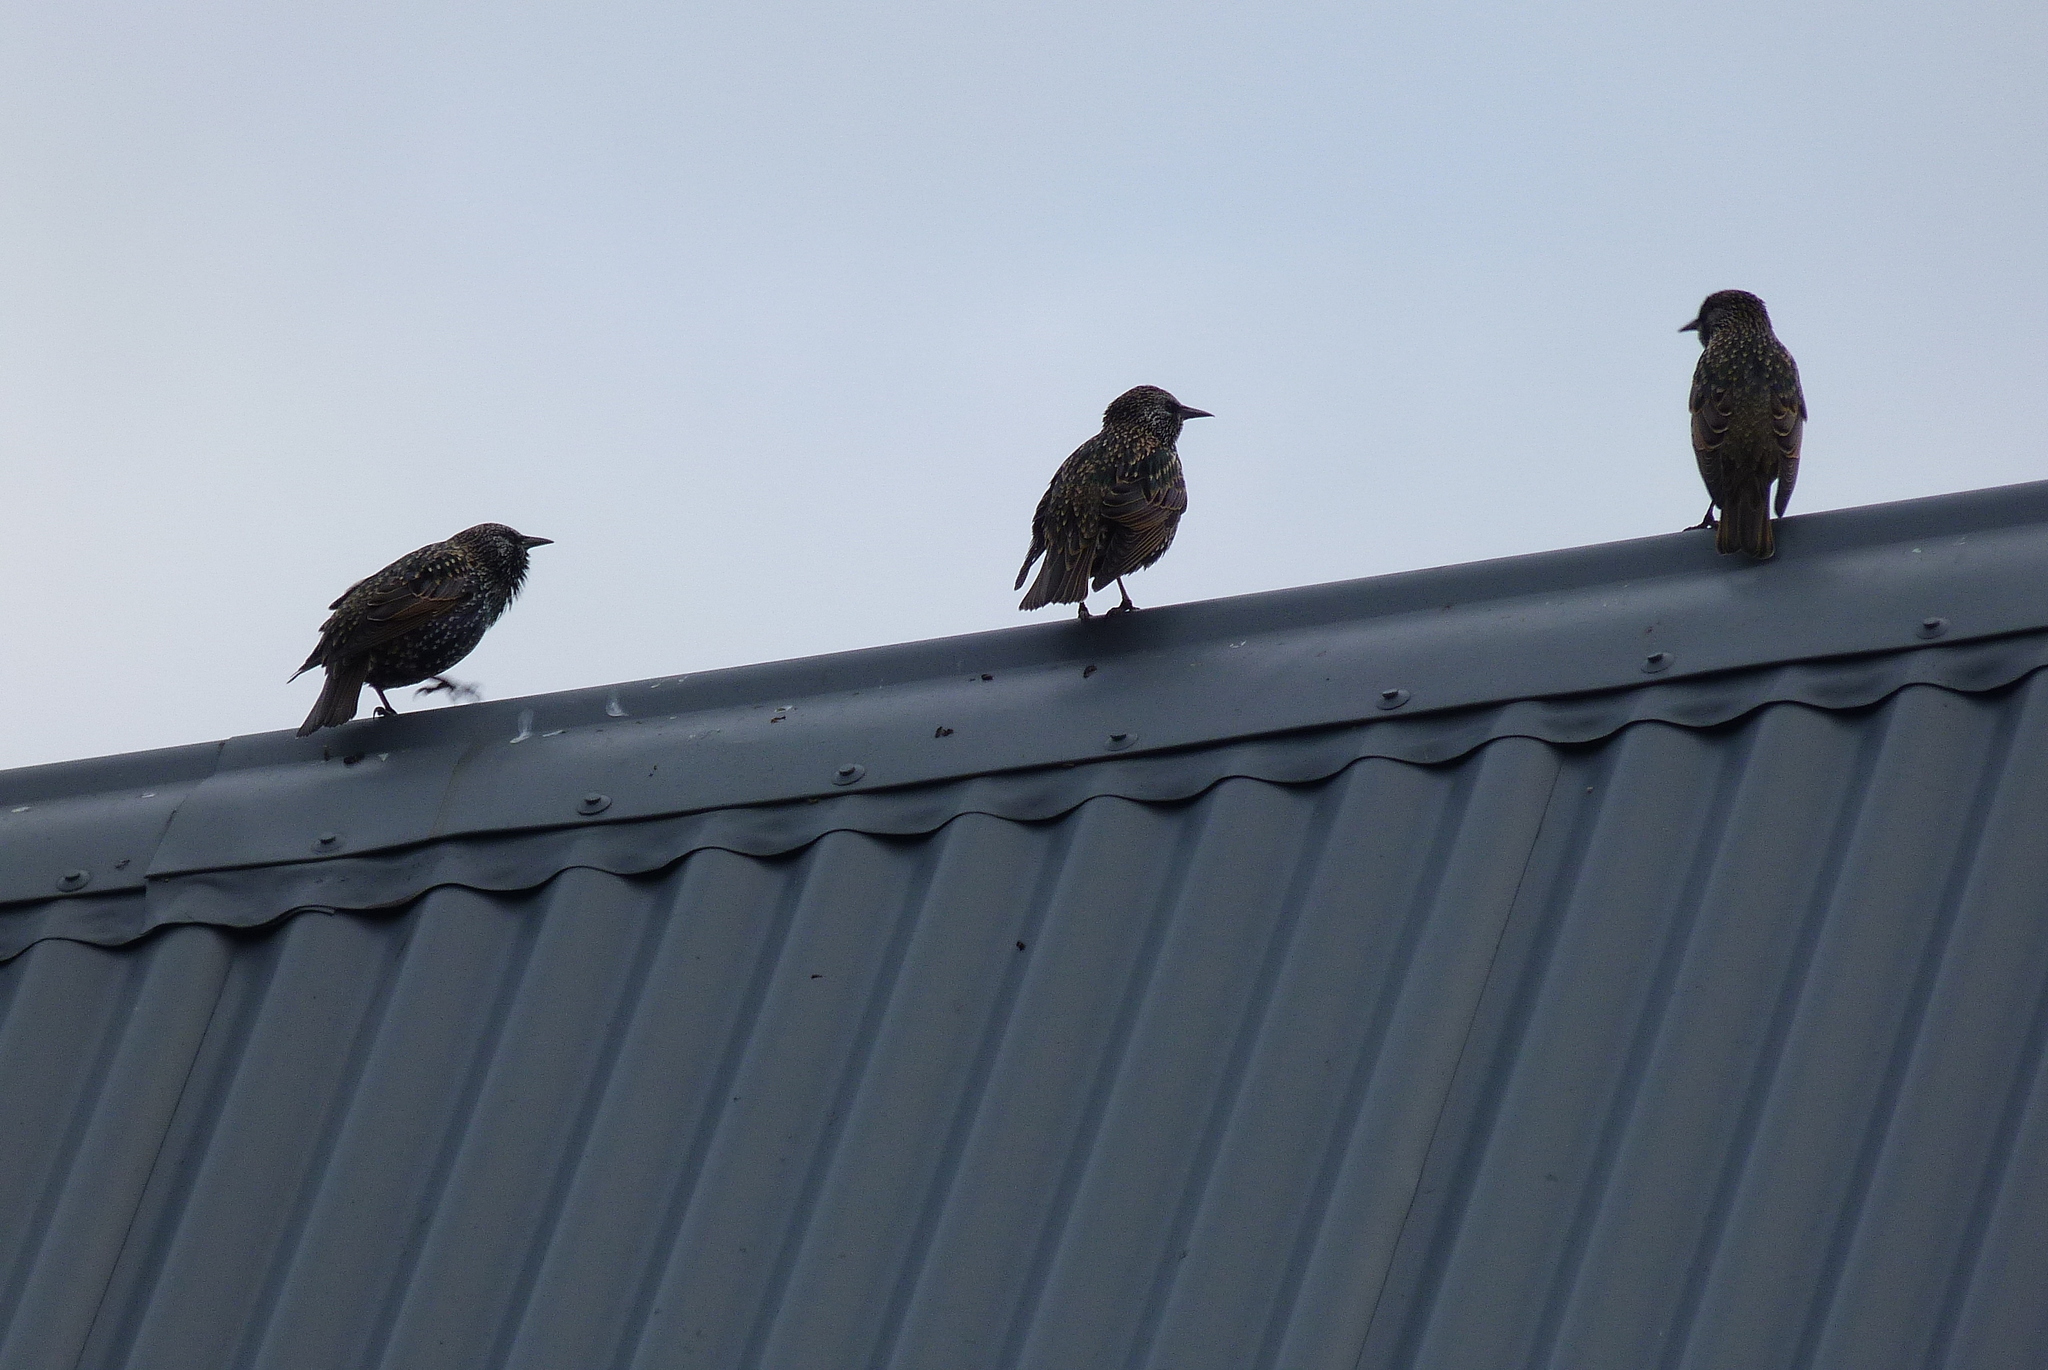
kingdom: Animalia
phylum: Chordata
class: Aves
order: Passeriformes
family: Sturnidae
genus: Sturnus
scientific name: Sturnus vulgaris
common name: Common starling
